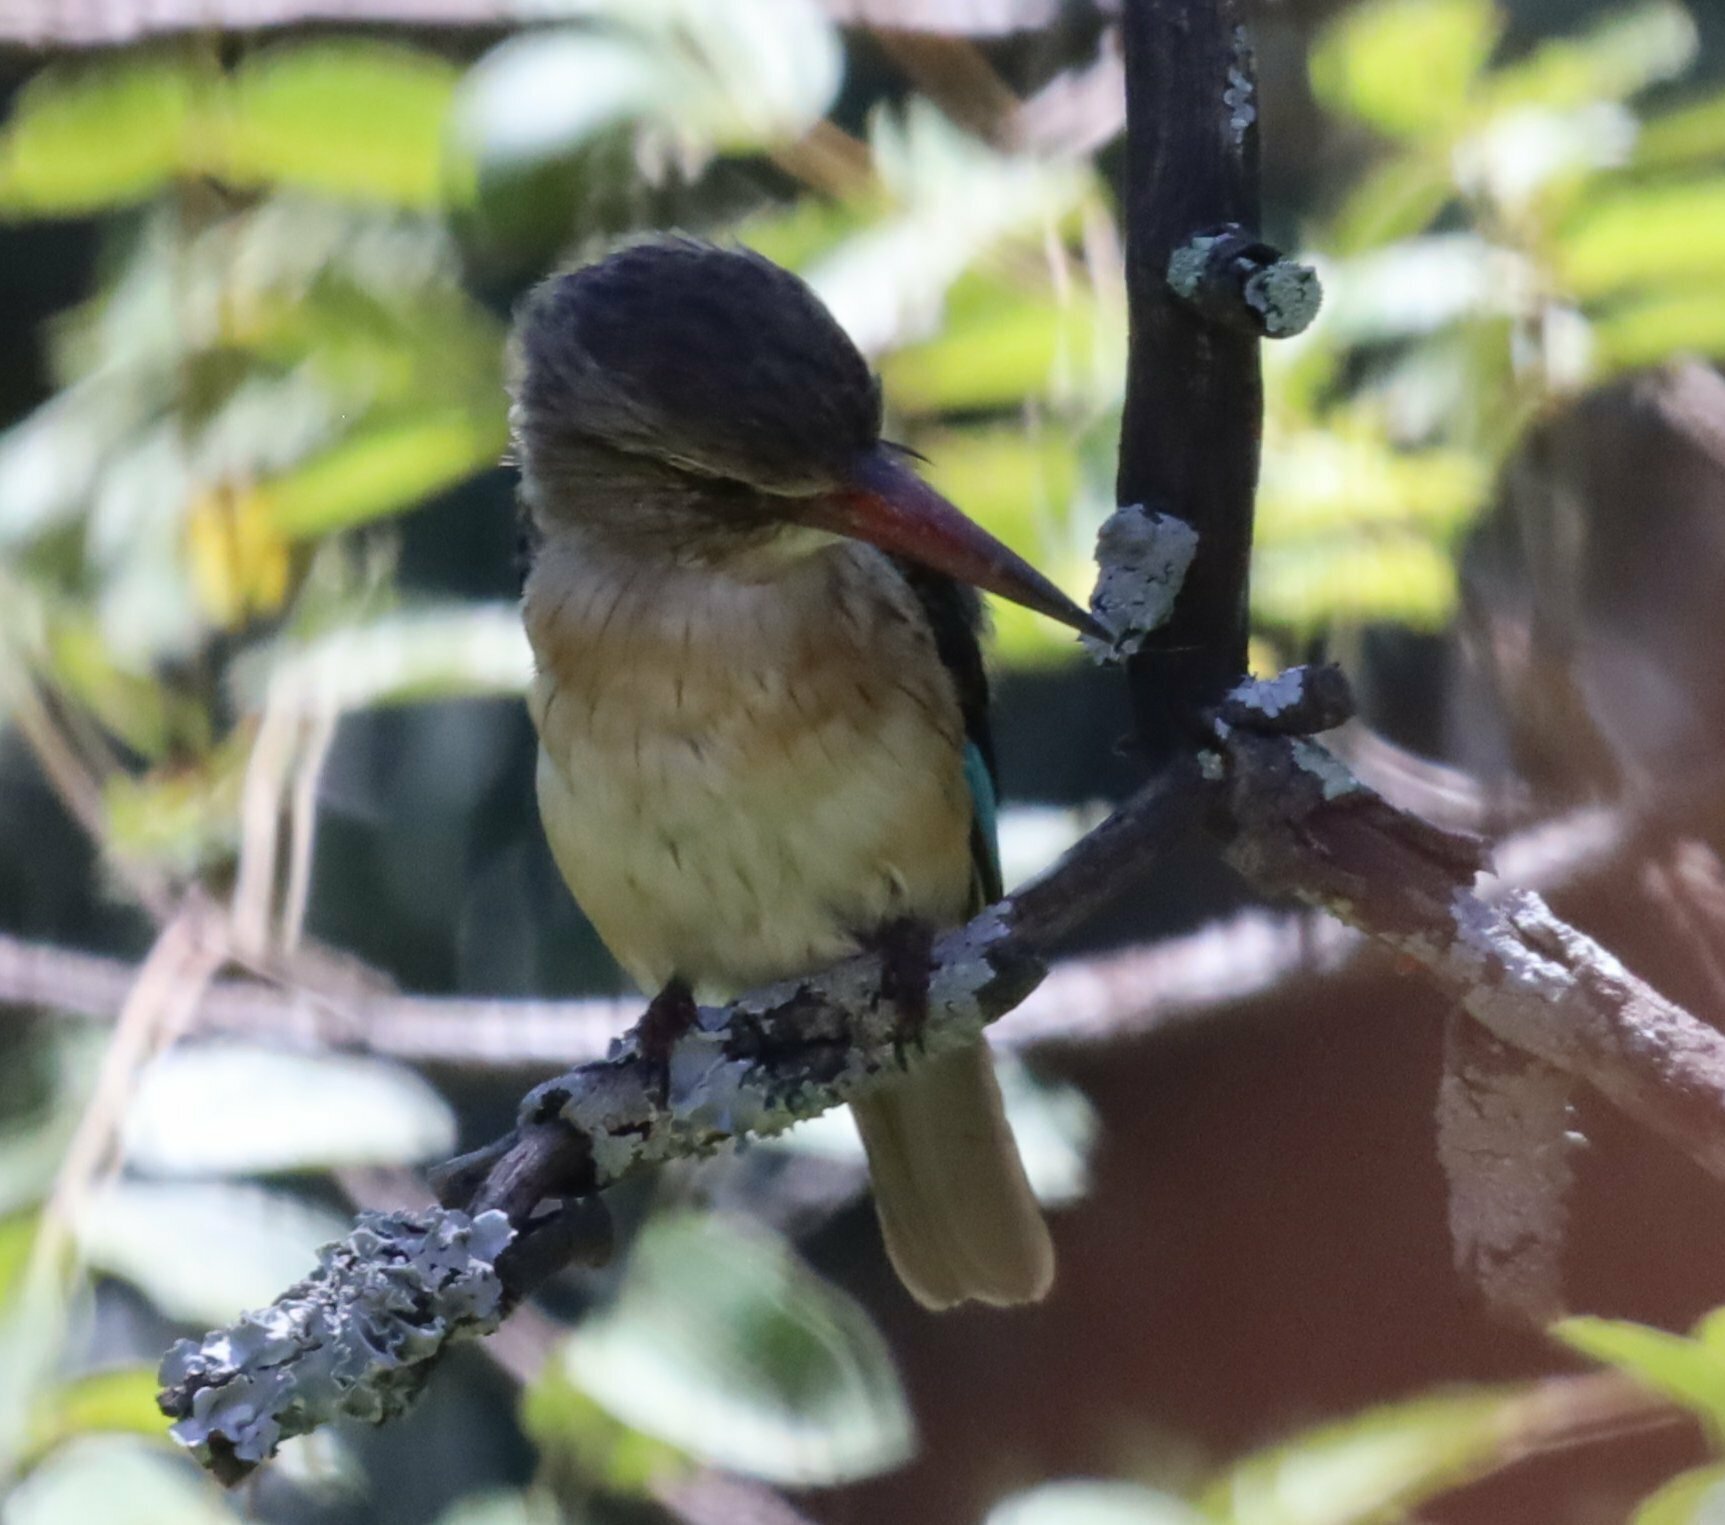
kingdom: Animalia
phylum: Chordata
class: Aves
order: Coraciiformes
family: Alcedinidae
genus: Halcyon
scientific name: Halcyon albiventris
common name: Brown-hooded kingfisher
